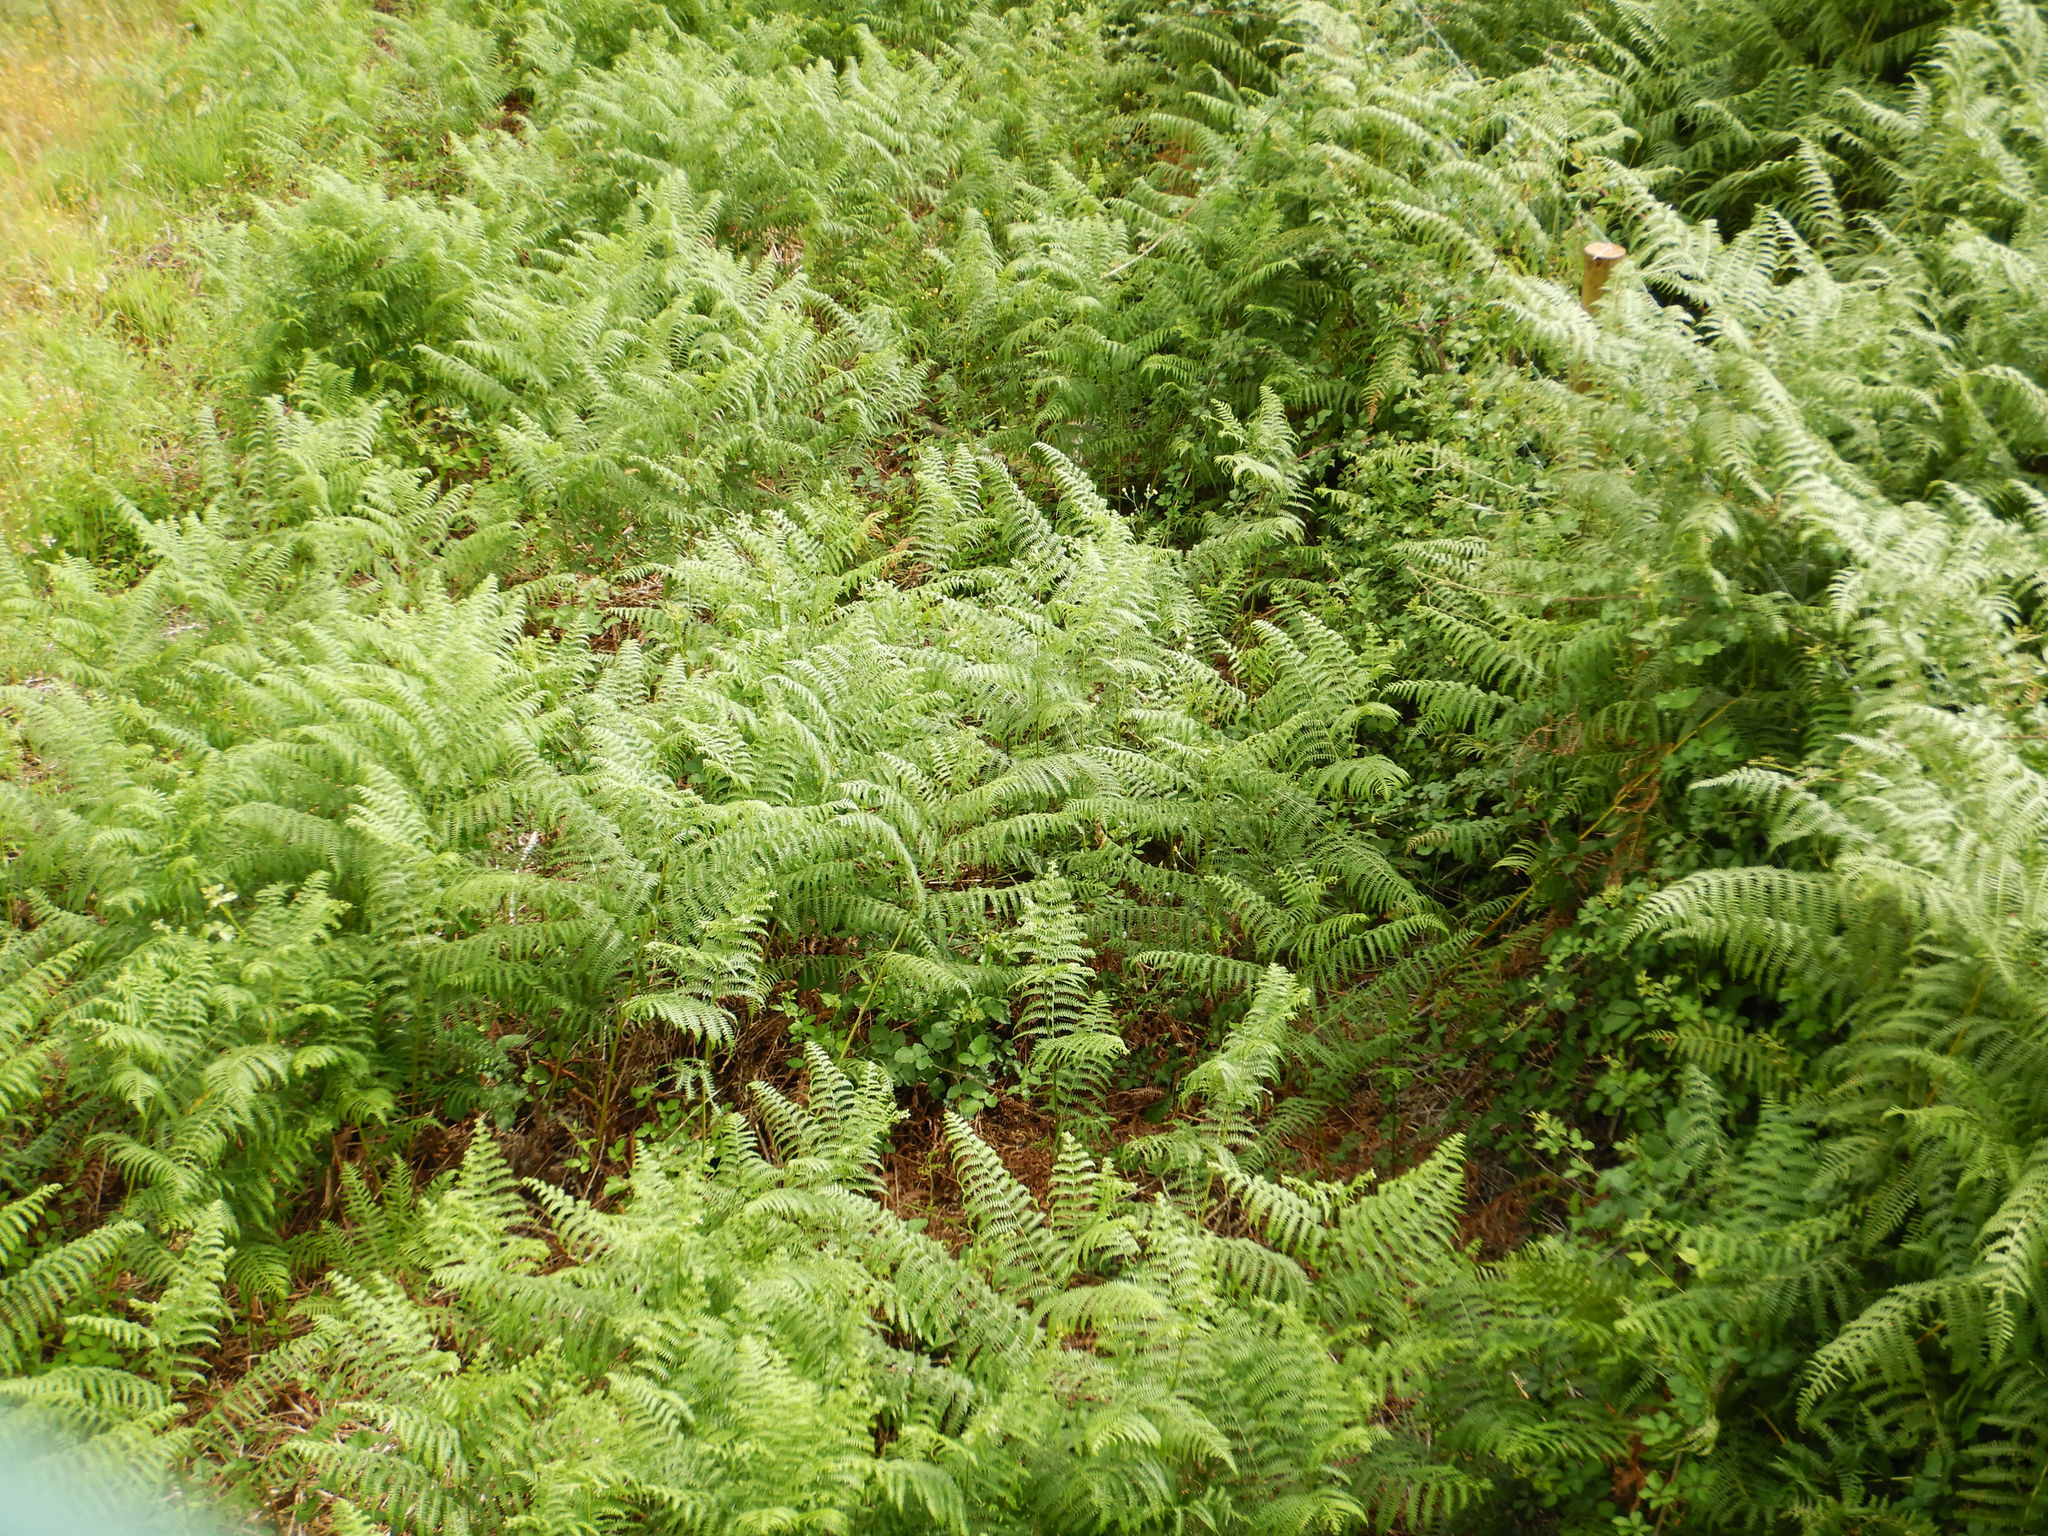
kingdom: Plantae
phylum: Tracheophyta
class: Polypodiopsida
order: Polypodiales
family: Dennstaedtiaceae
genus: Pteridium
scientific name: Pteridium aquilinum
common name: Bracken
